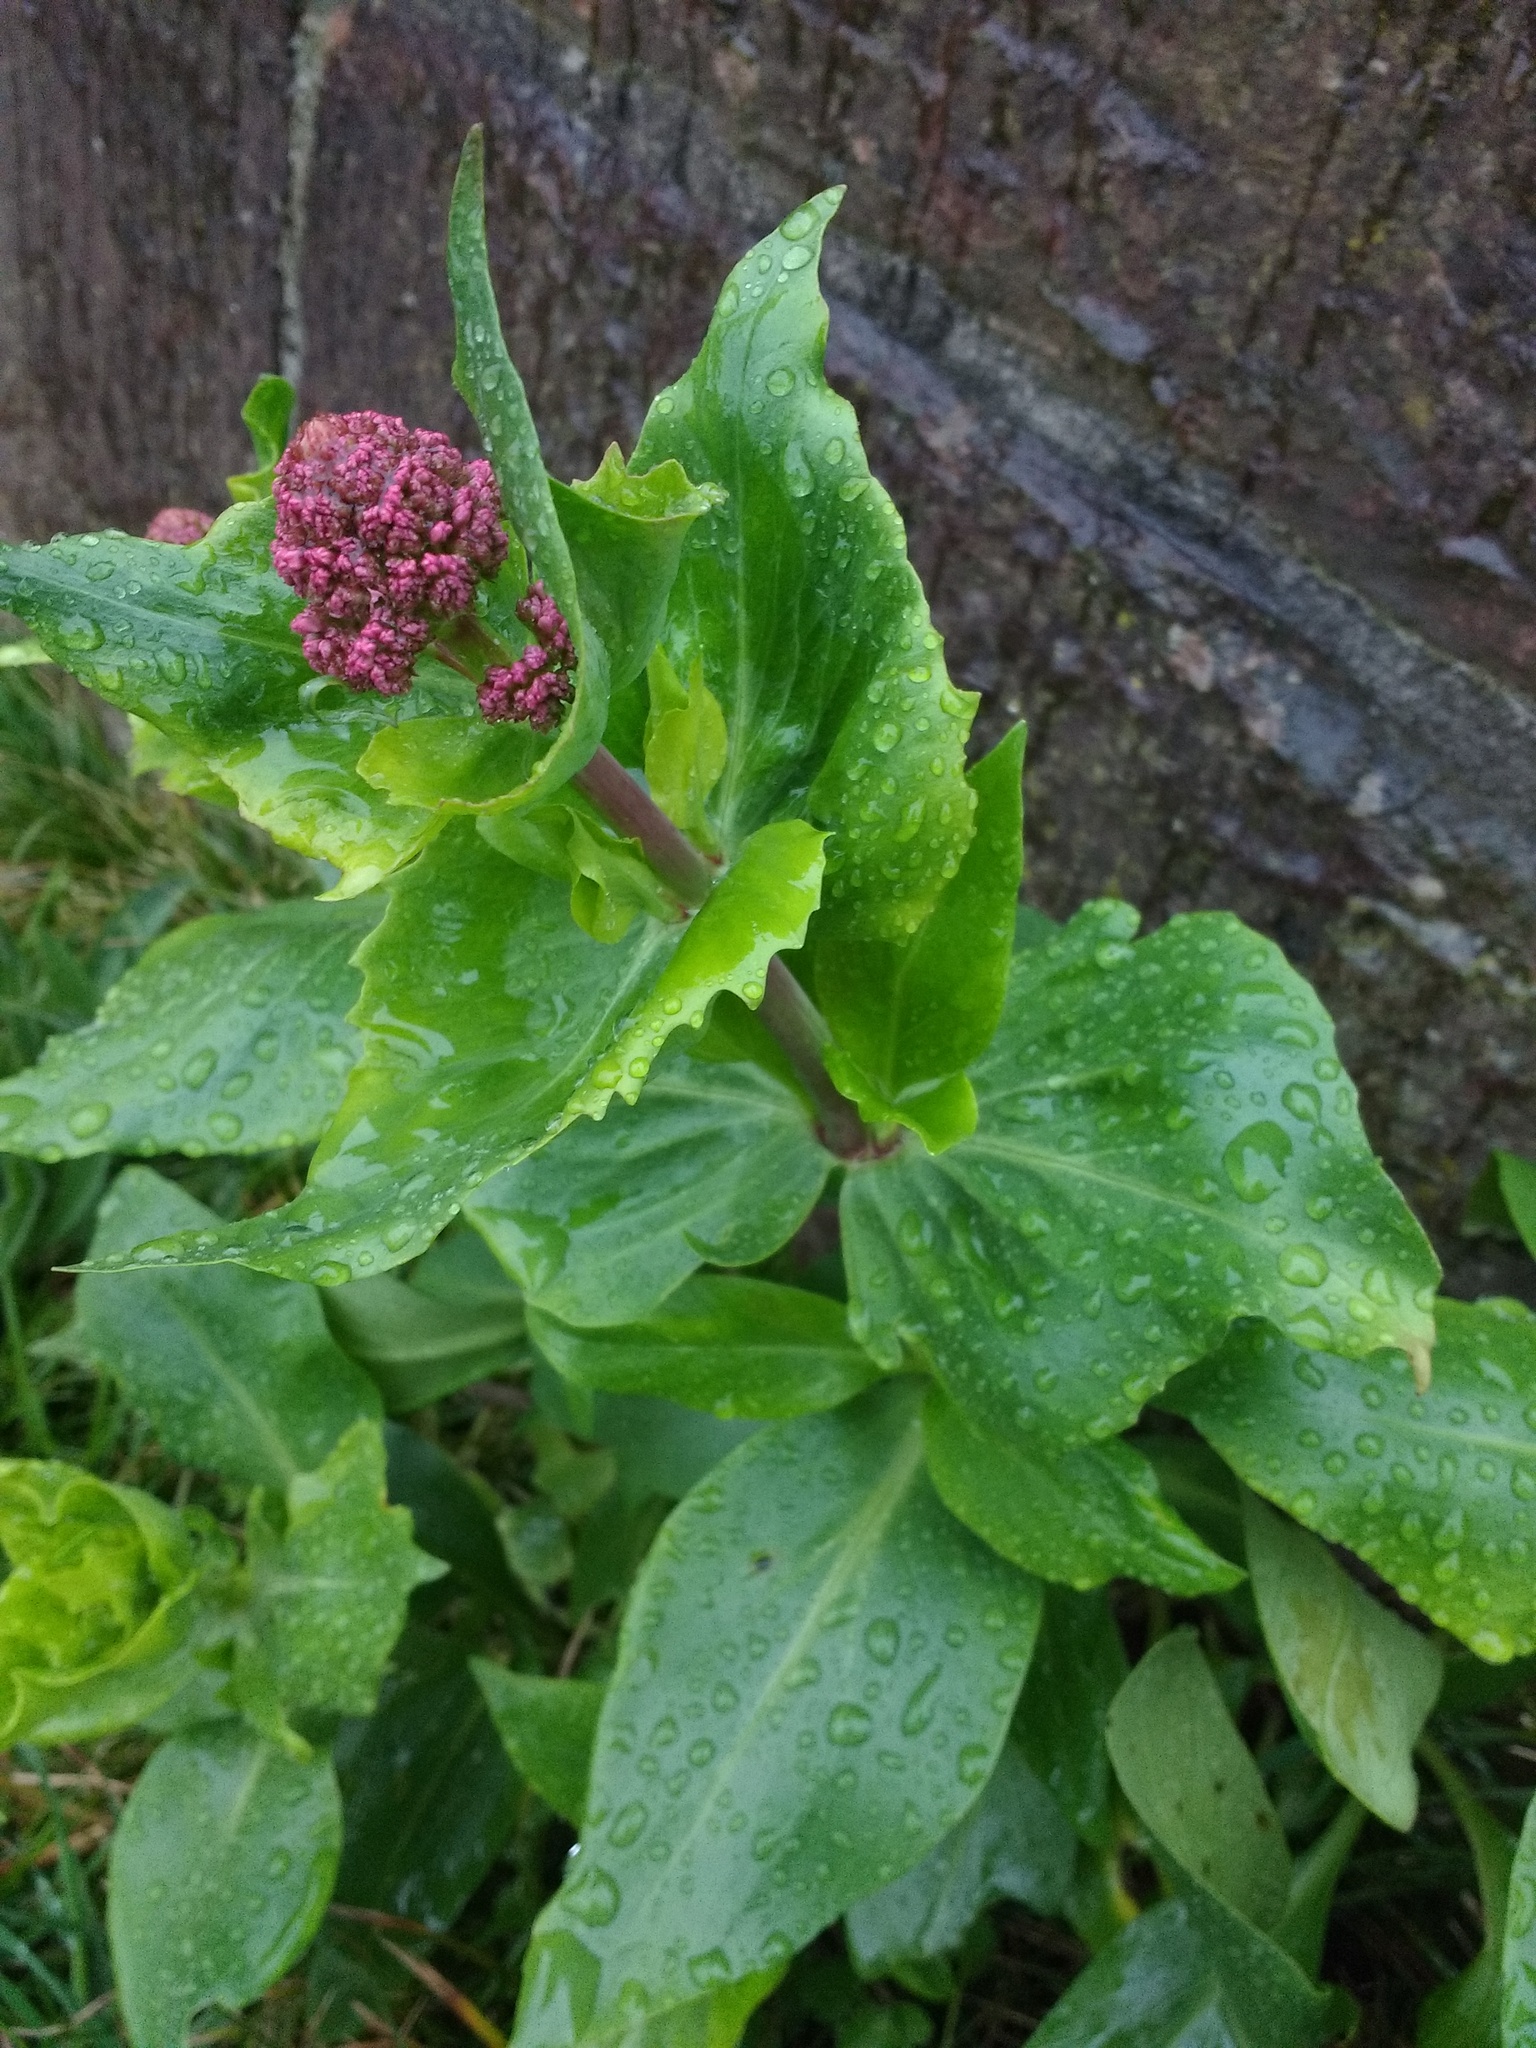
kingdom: Plantae
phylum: Tracheophyta
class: Magnoliopsida
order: Dipsacales
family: Caprifoliaceae
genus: Centranthus
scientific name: Centranthus ruber
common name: Red valerian
